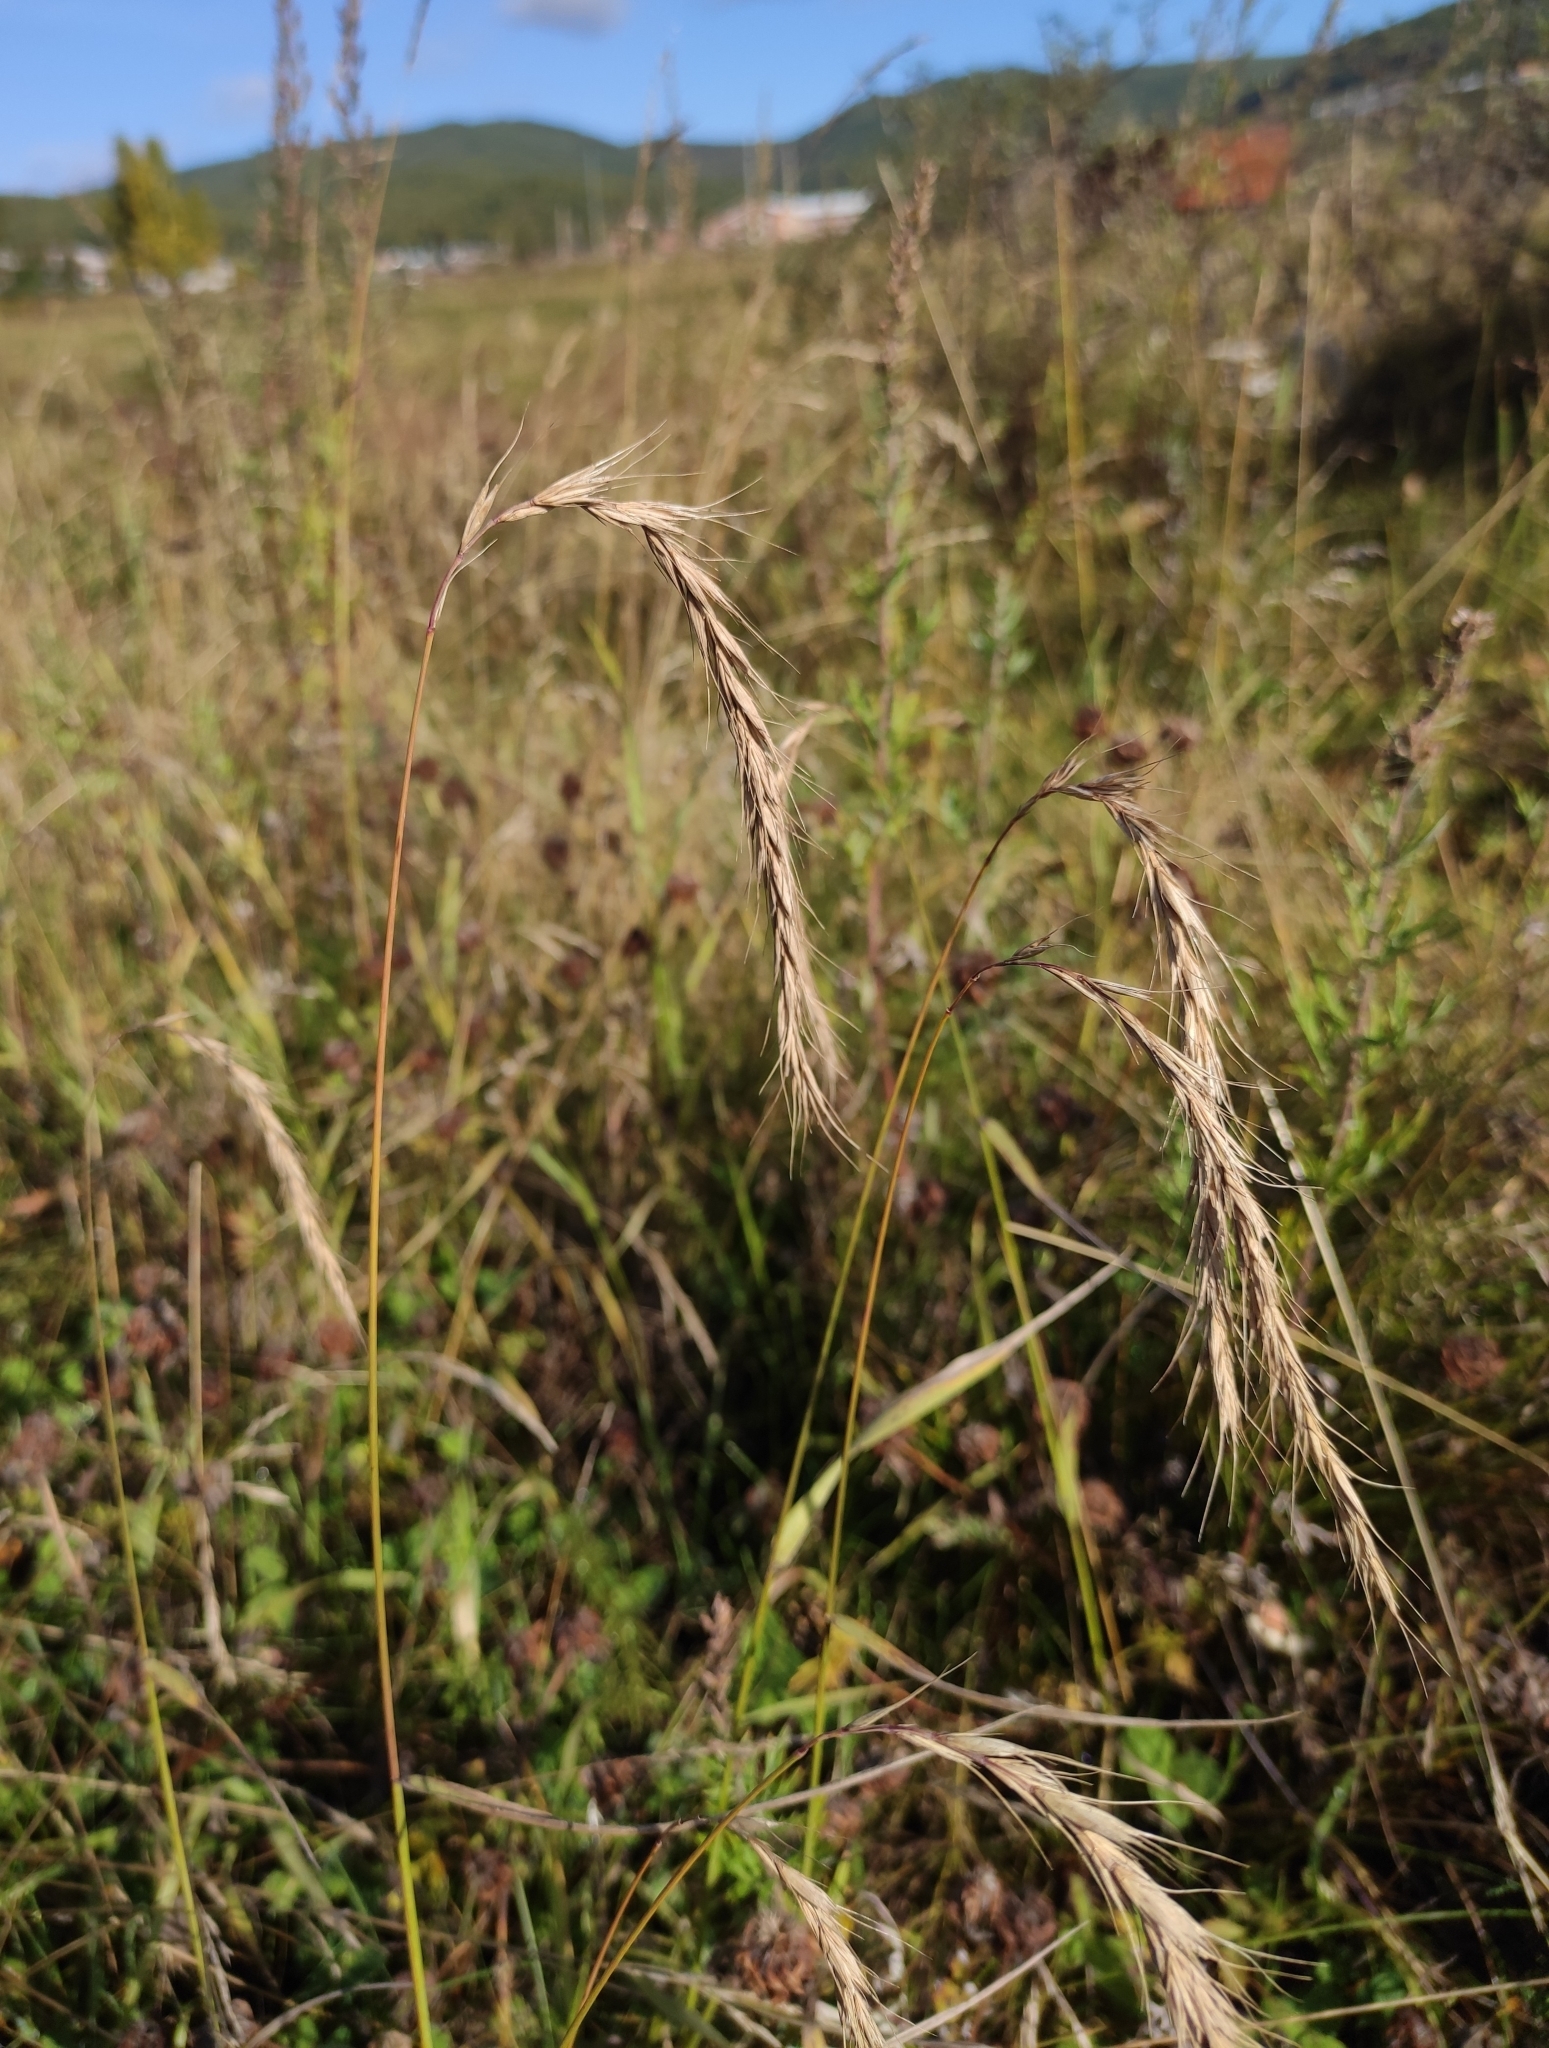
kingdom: Plantae
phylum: Tracheophyta
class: Liliopsida
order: Poales
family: Poaceae
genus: Elymus
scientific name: Elymus sibiricus
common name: Siberian wildrye
